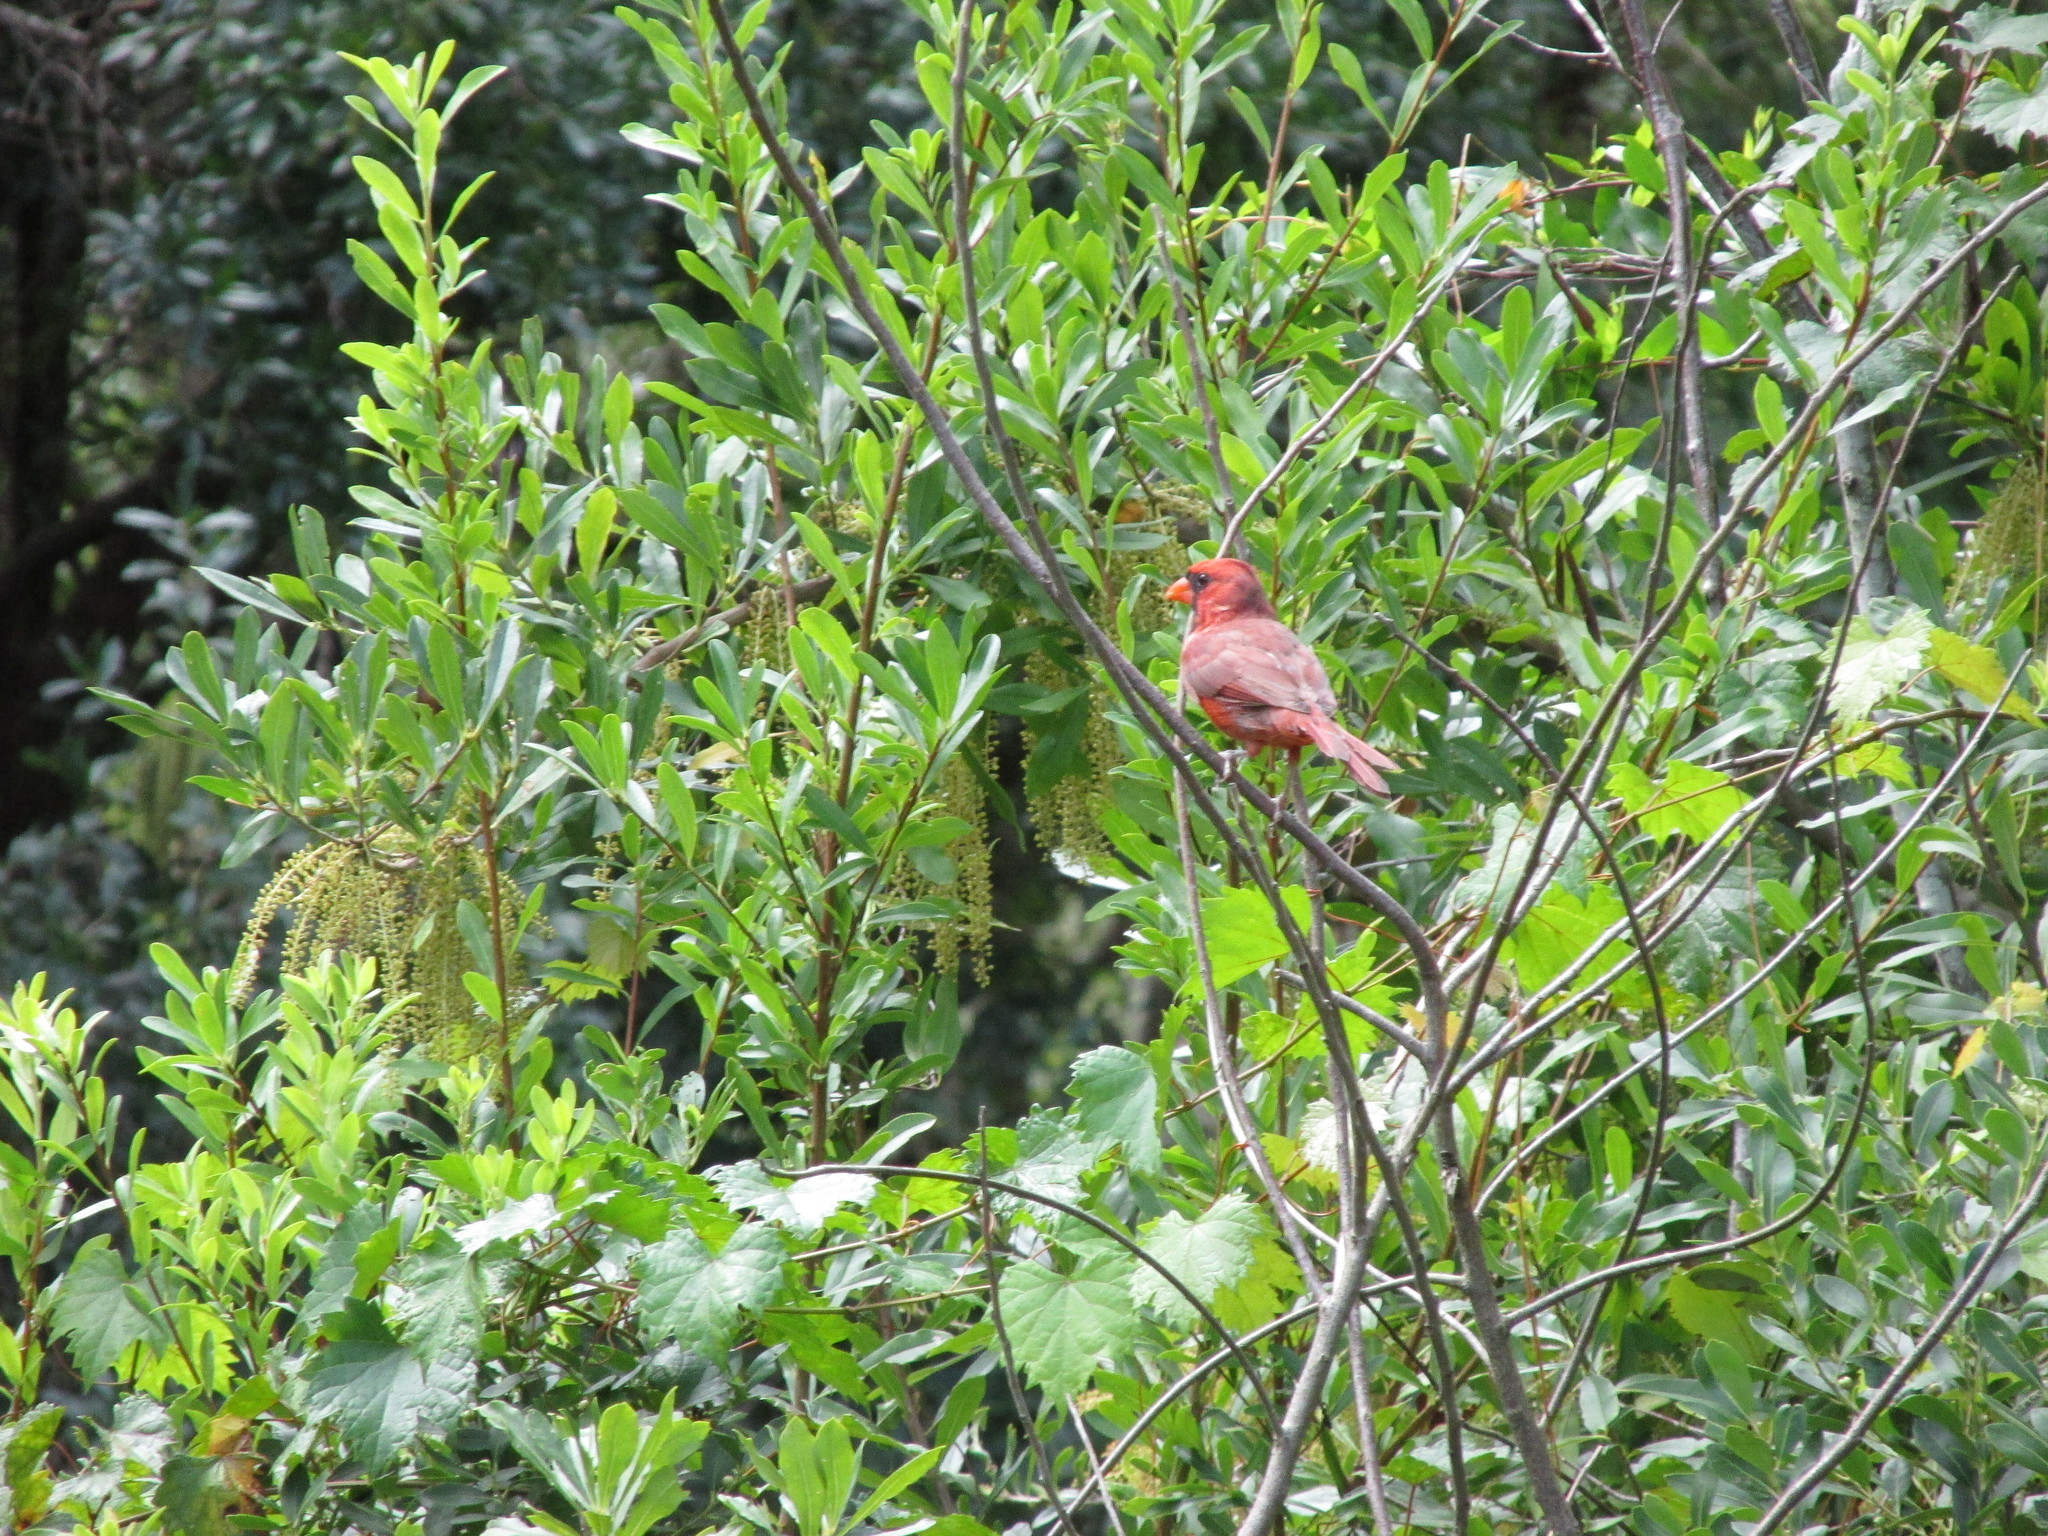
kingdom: Animalia
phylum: Chordata
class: Aves
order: Passeriformes
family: Cardinalidae
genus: Cardinalis
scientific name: Cardinalis cardinalis
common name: Northern cardinal
